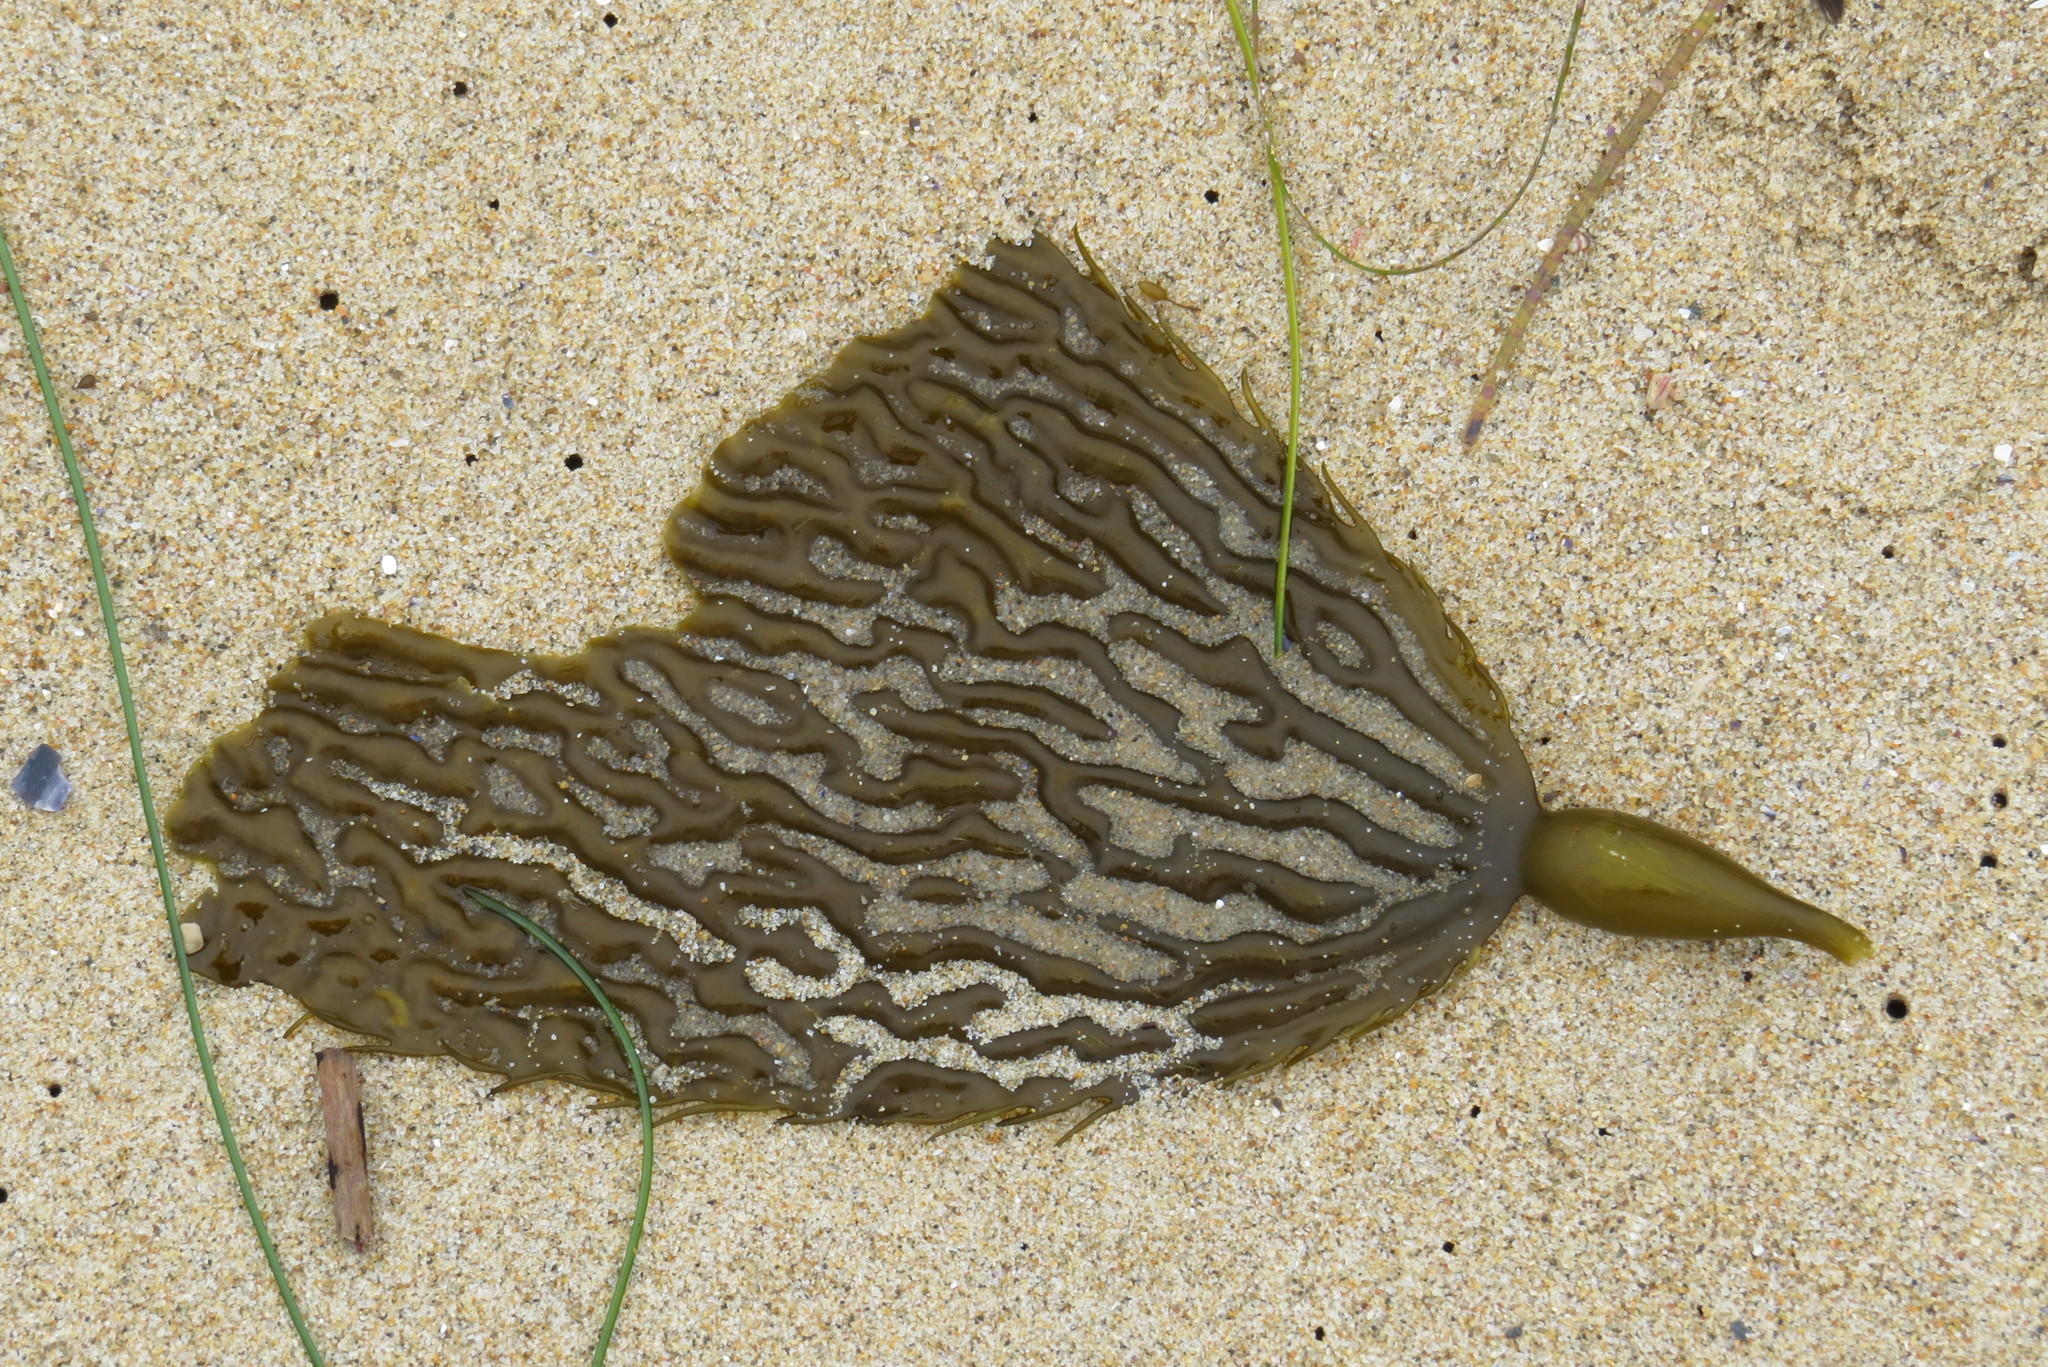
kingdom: Chromista
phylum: Ochrophyta
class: Phaeophyceae
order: Laminariales
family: Laminariaceae
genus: Macrocystis
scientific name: Macrocystis pyrifera
